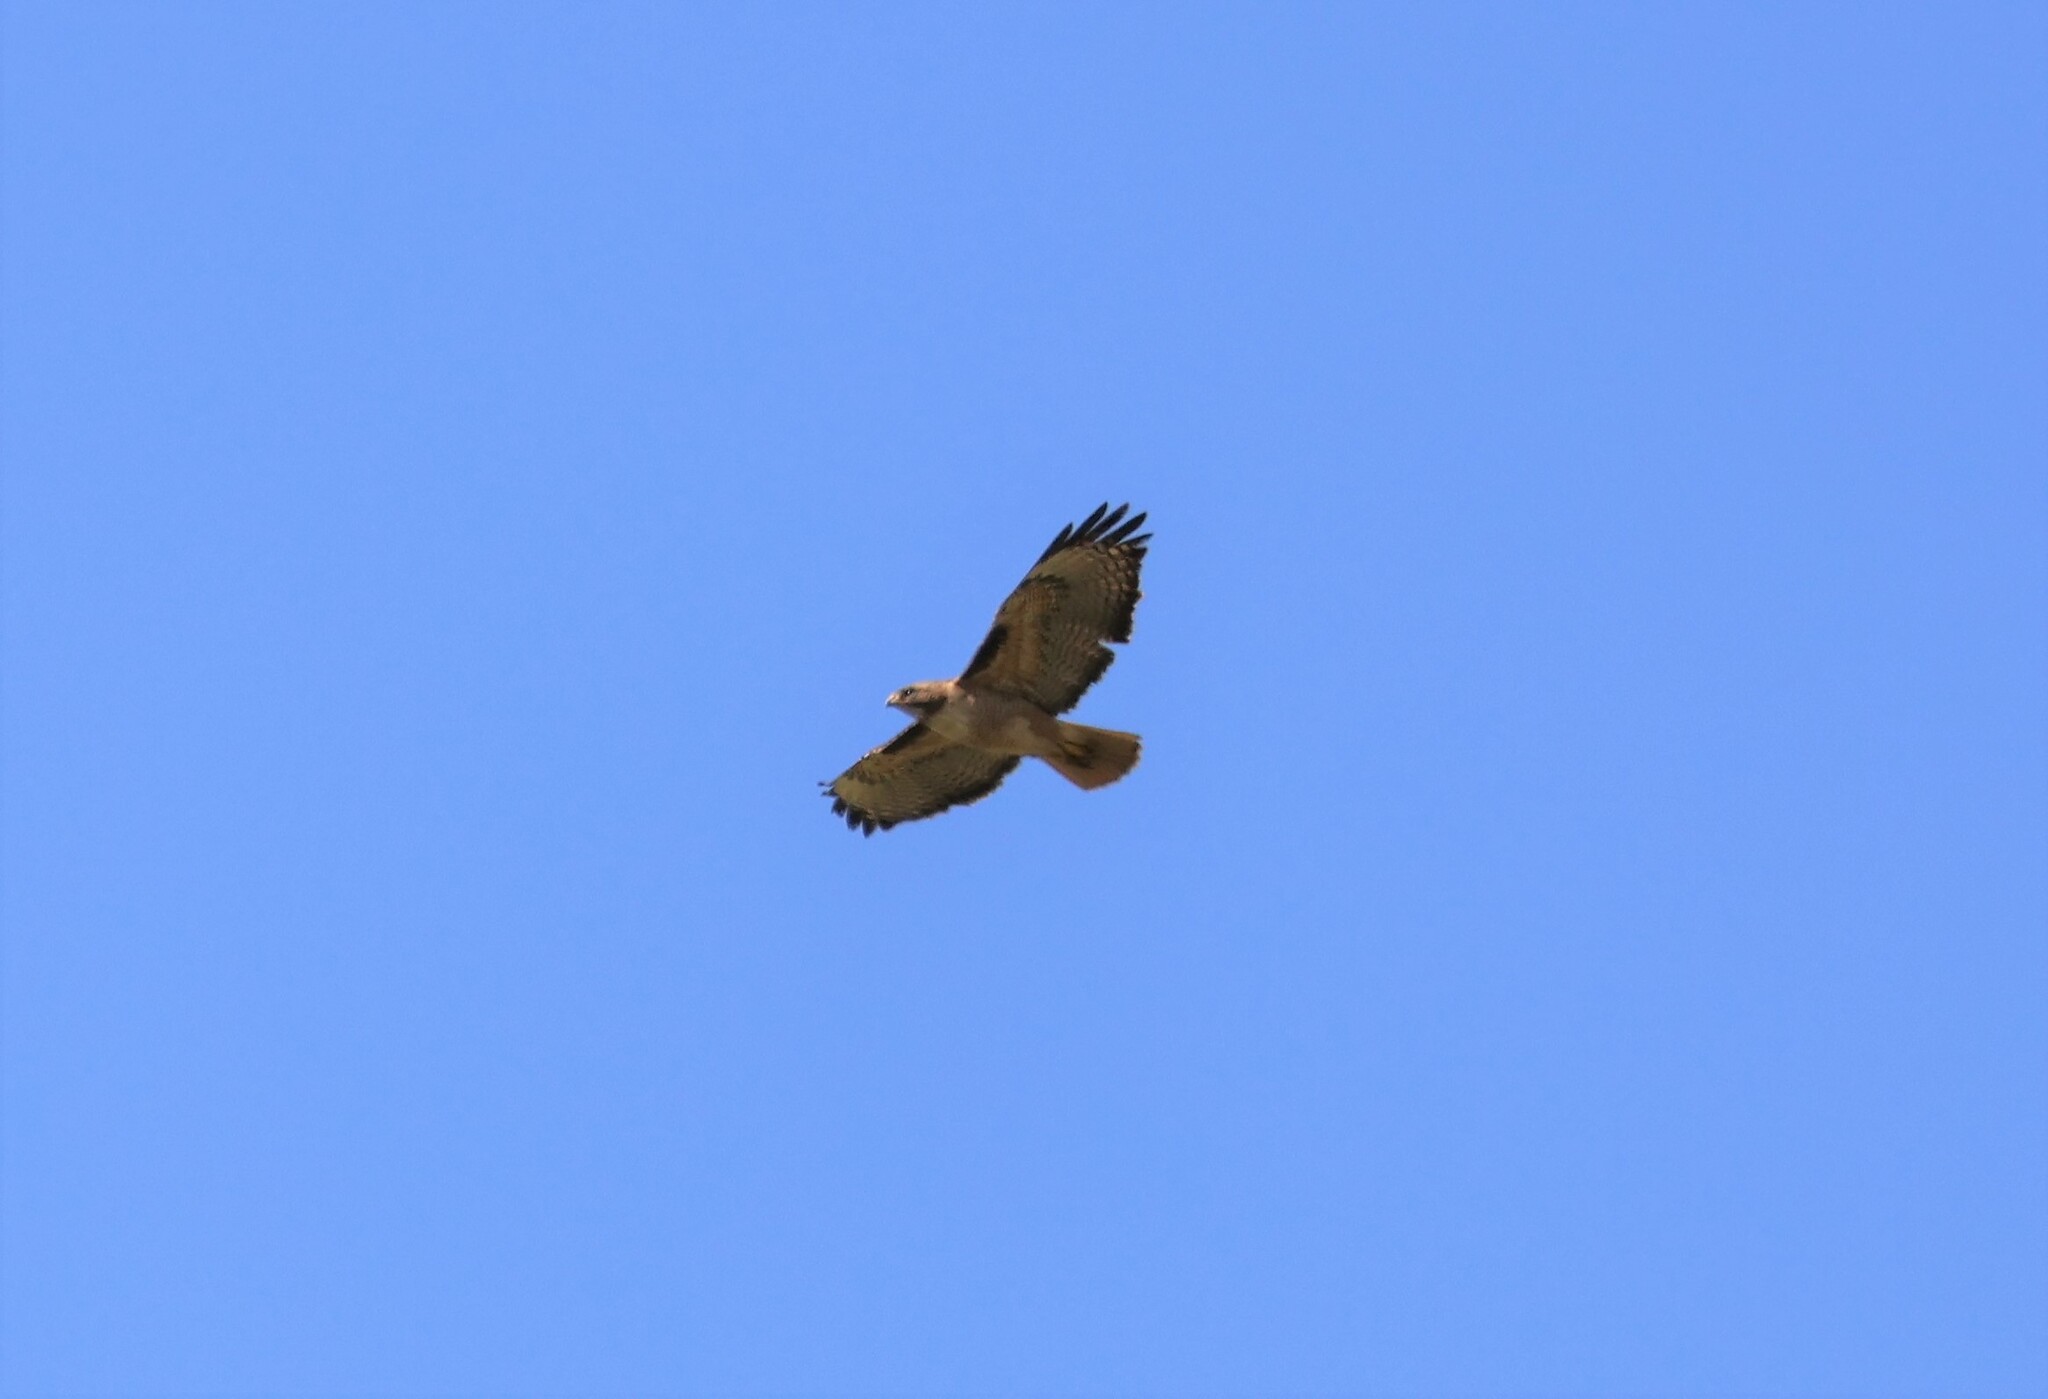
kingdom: Animalia
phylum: Chordata
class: Aves
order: Accipitriformes
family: Accipitridae
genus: Buteo
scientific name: Buteo jamaicensis
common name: Red-tailed hawk
